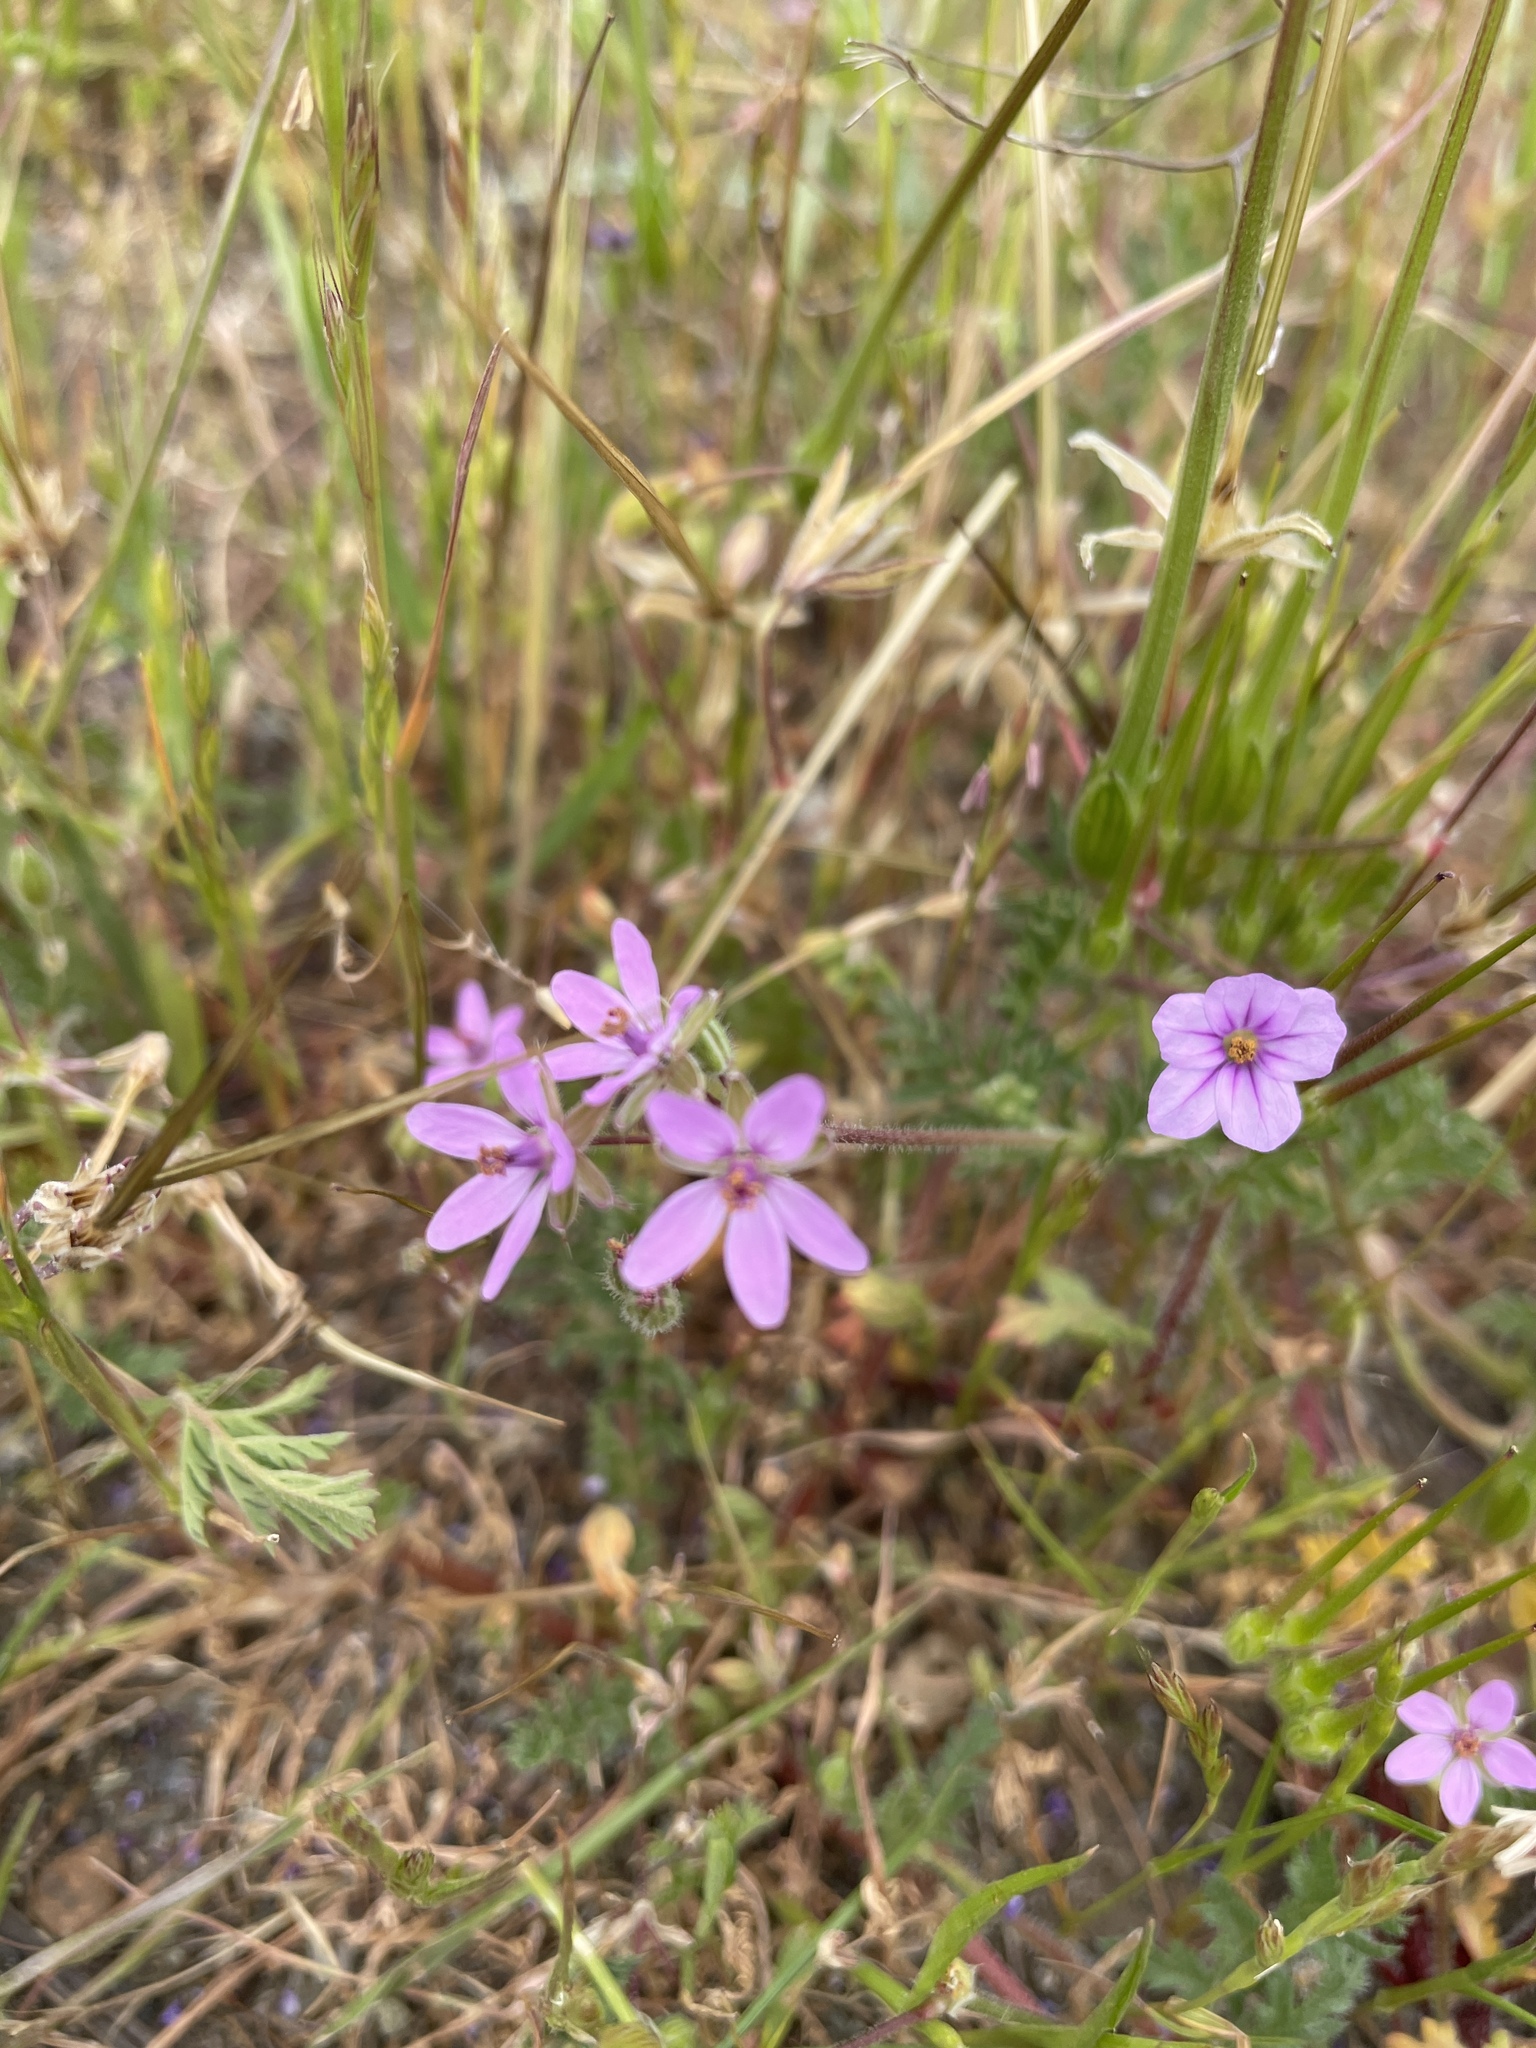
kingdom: Plantae
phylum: Tracheophyta
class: Magnoliopsida
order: Geraniales
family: Geraniaceae
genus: Erodium
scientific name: Erodium cicutarium
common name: Common stork's-bill
